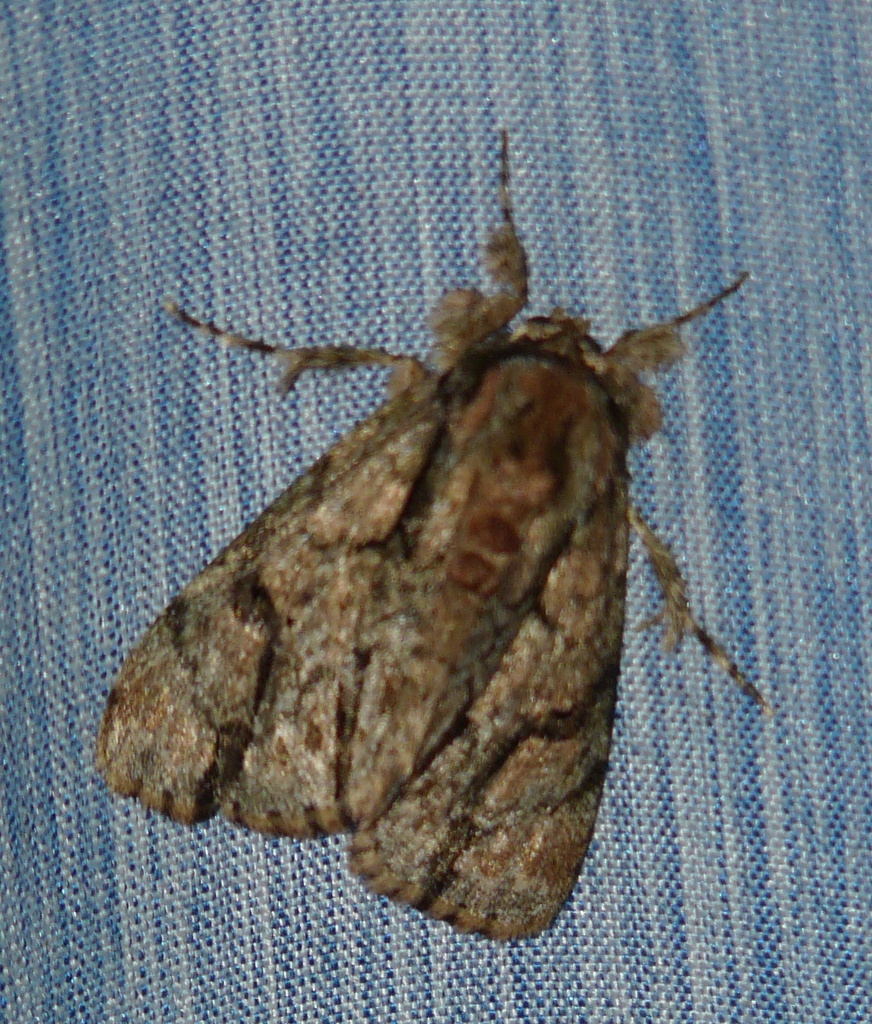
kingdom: Animalia
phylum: Arthropoda
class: Insecta
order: Lepidoptera
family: Noctuidae
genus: Tanocryx
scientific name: Tanocryx pinheyi
